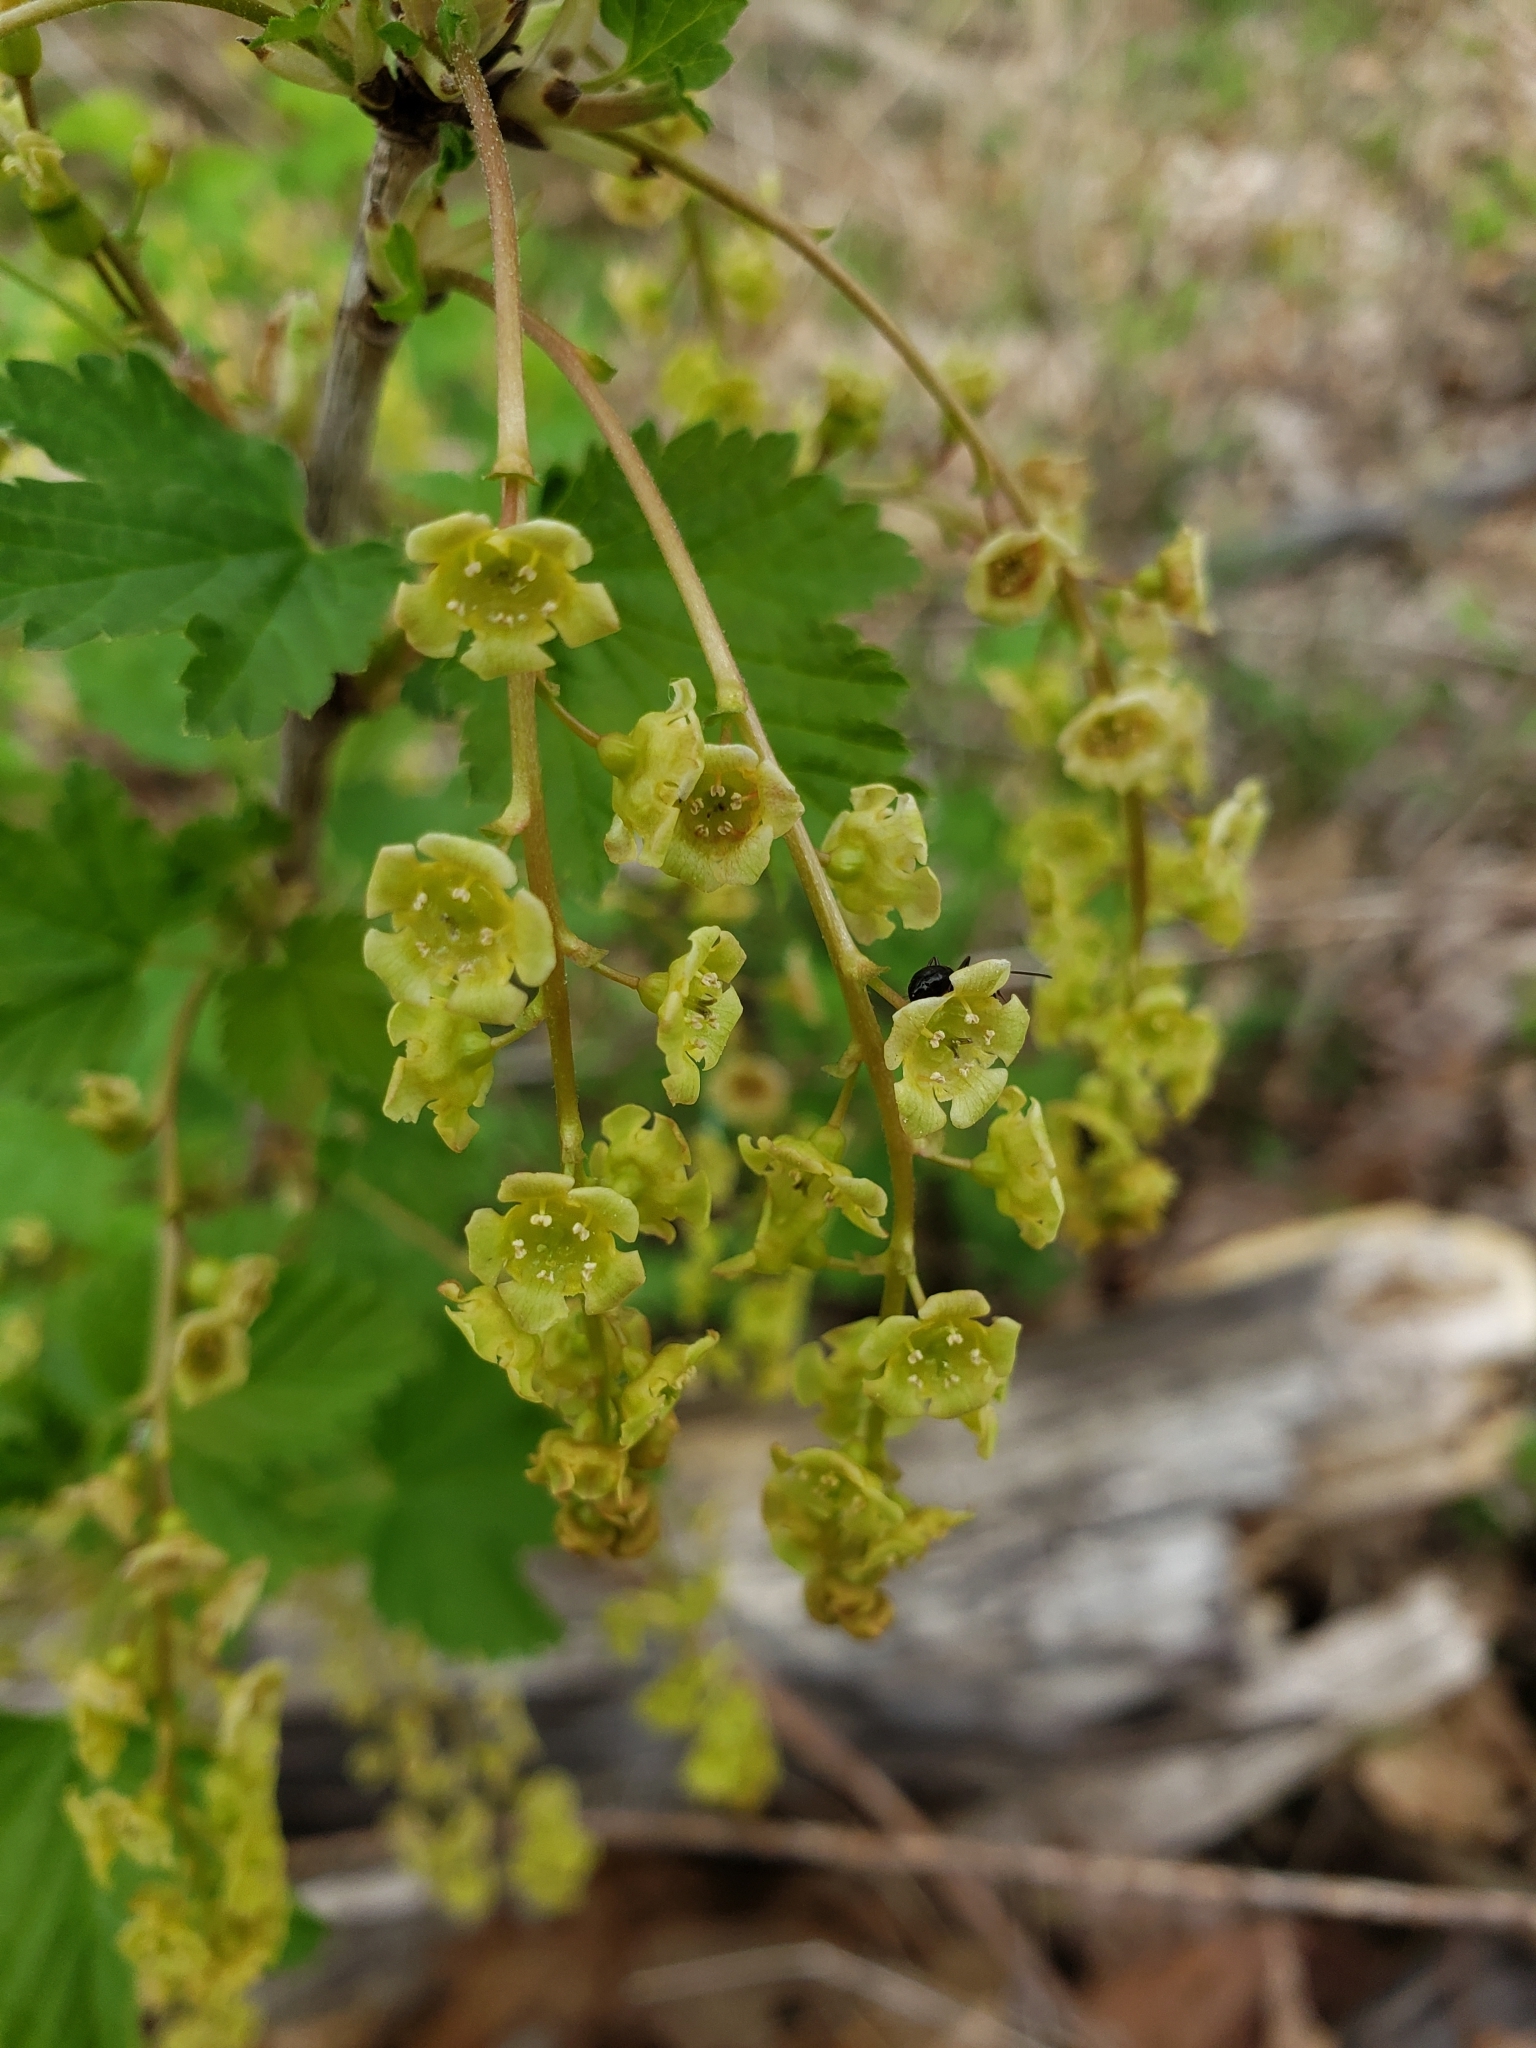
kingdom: Plantae
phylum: Tracheophyta
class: Magnoliopsida
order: Saxifragales
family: Grossulariaceae
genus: Ribes
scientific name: Ribes rubrum
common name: Red currant
